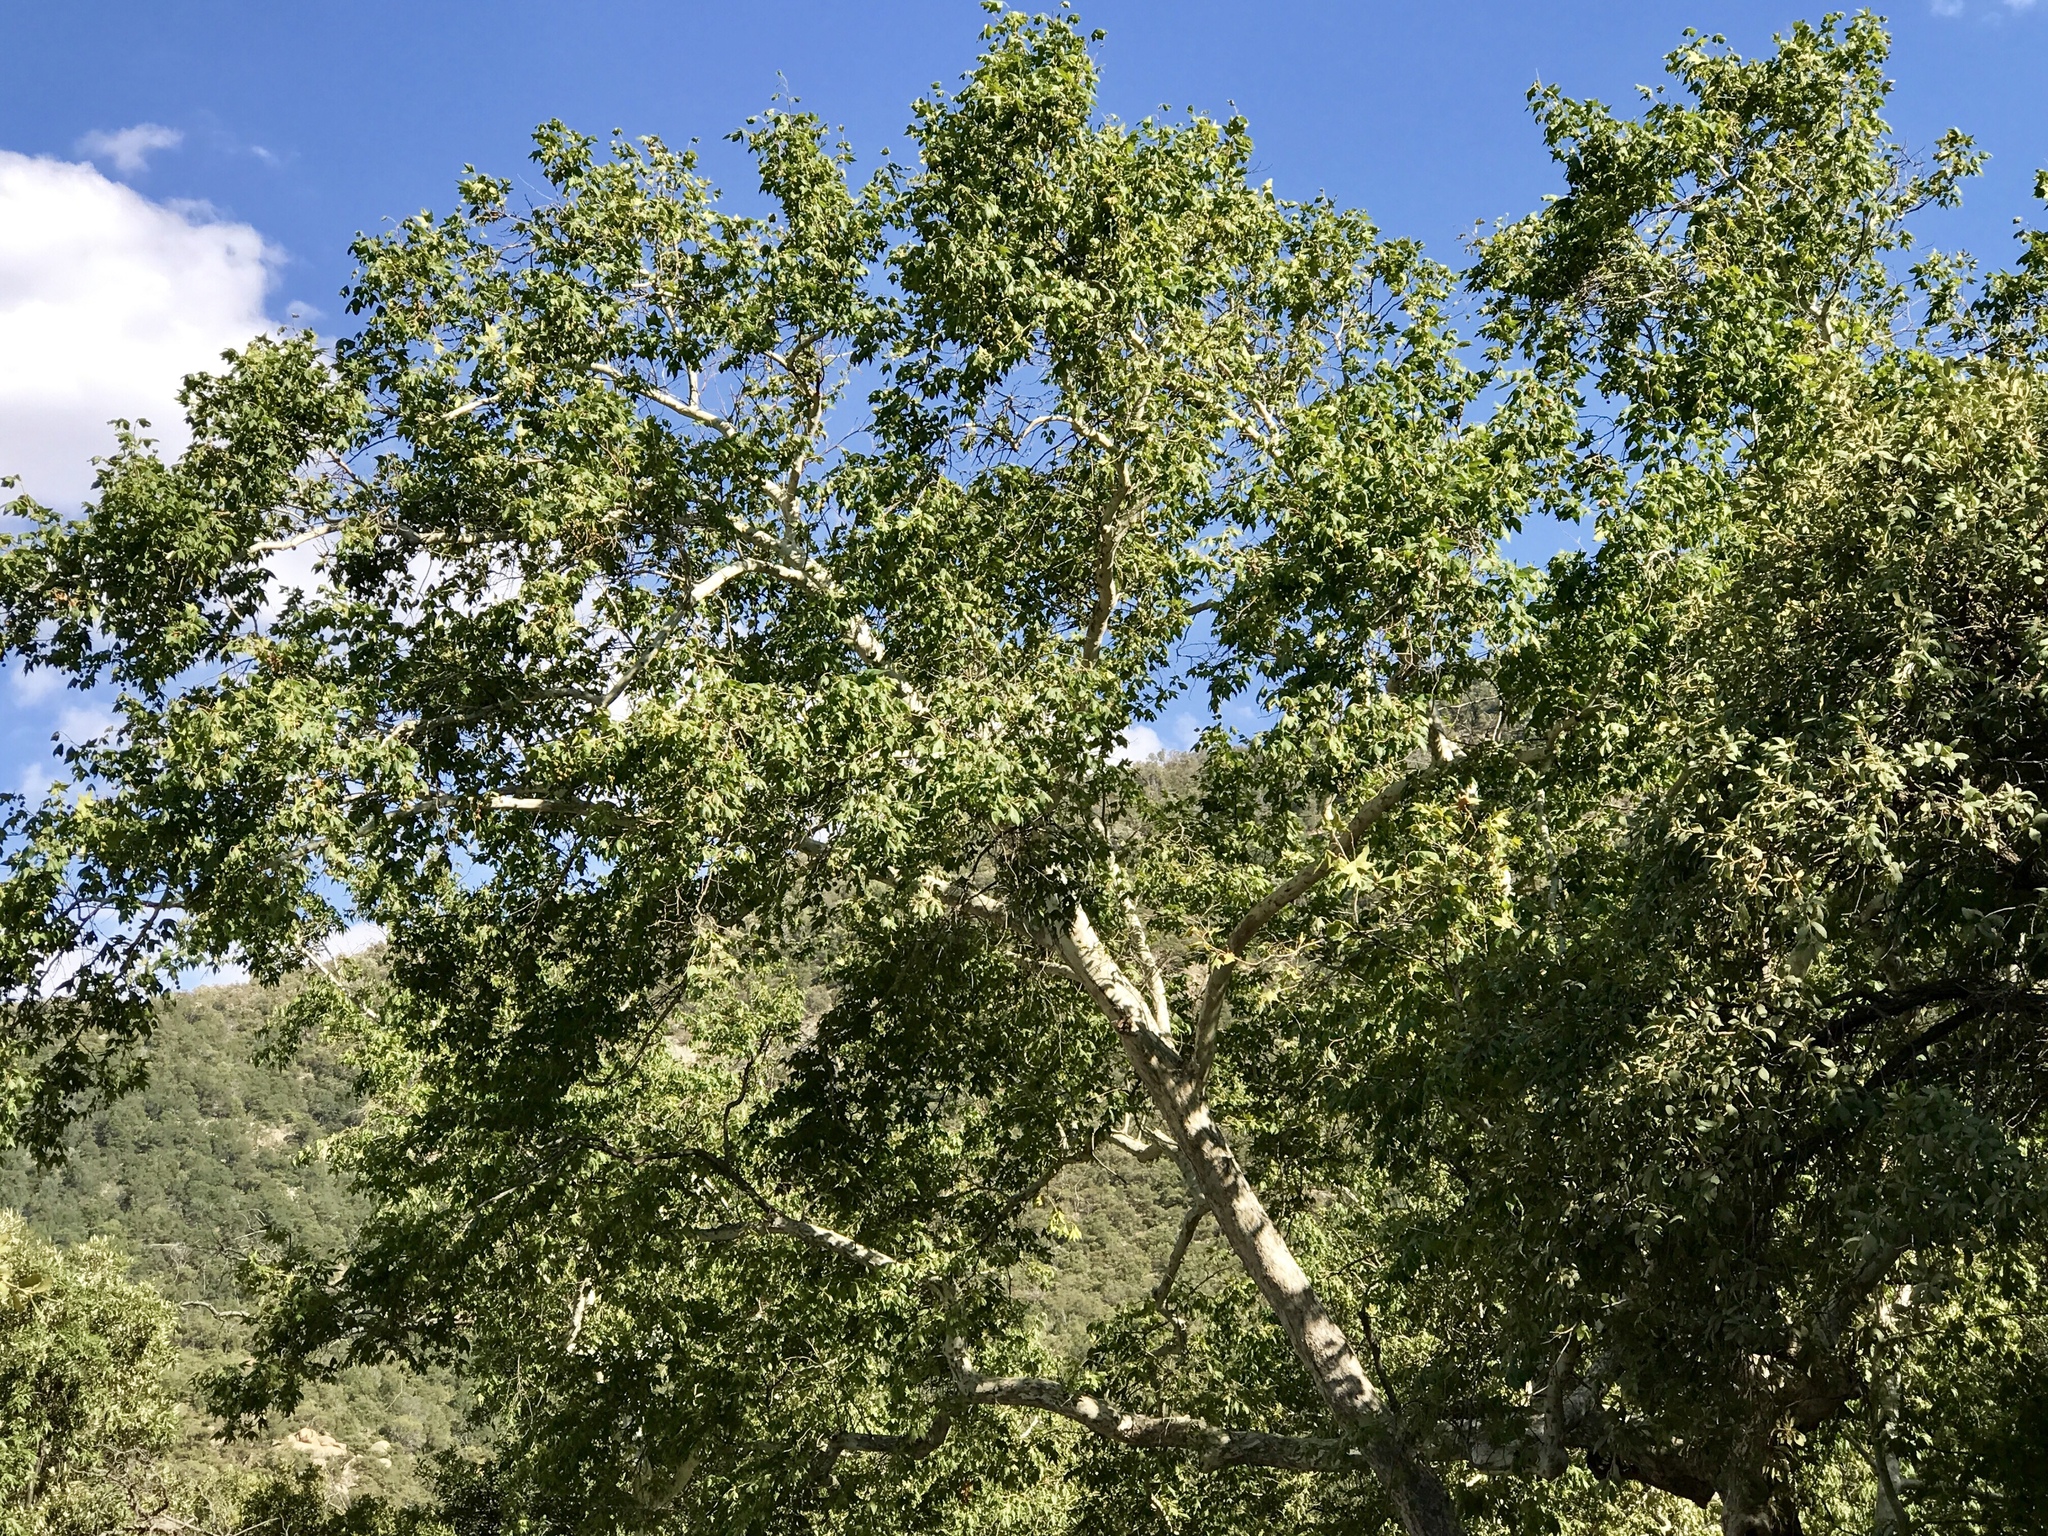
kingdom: Plantae
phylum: Tracheophyta
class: Magnoliopsida
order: Proteales
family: Platanaceae
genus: Platanus
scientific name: Platanus wrightii
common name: Arizona sycamore
